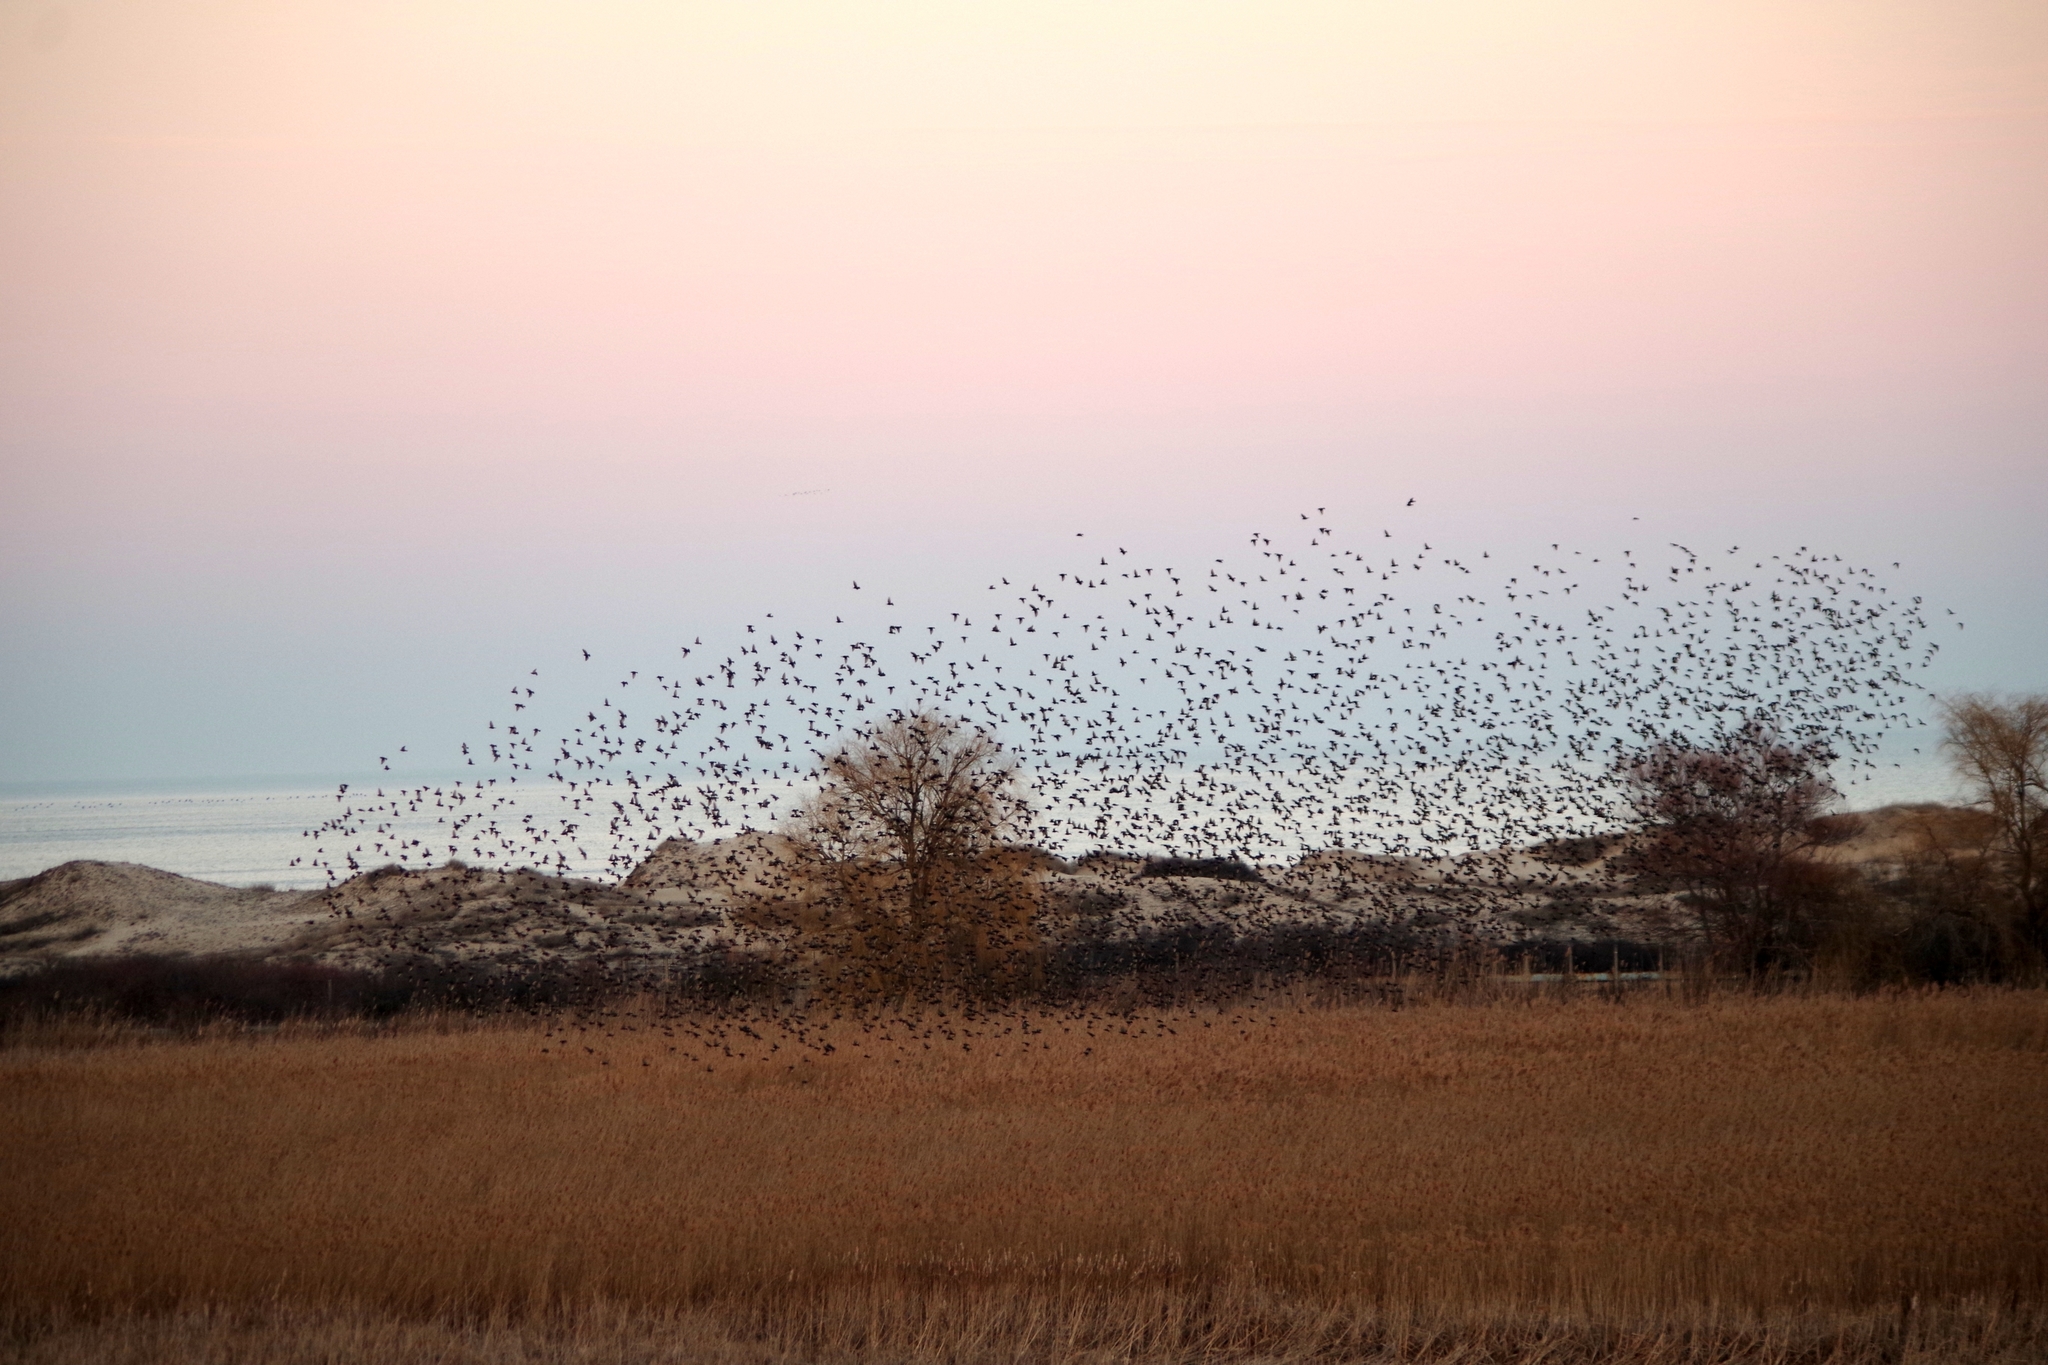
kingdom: Animalia
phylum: Chordata
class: Aves
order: Passeriformes
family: Sturnidae
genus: Sturnus
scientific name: Sturnus vulgaris
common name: Common starling
